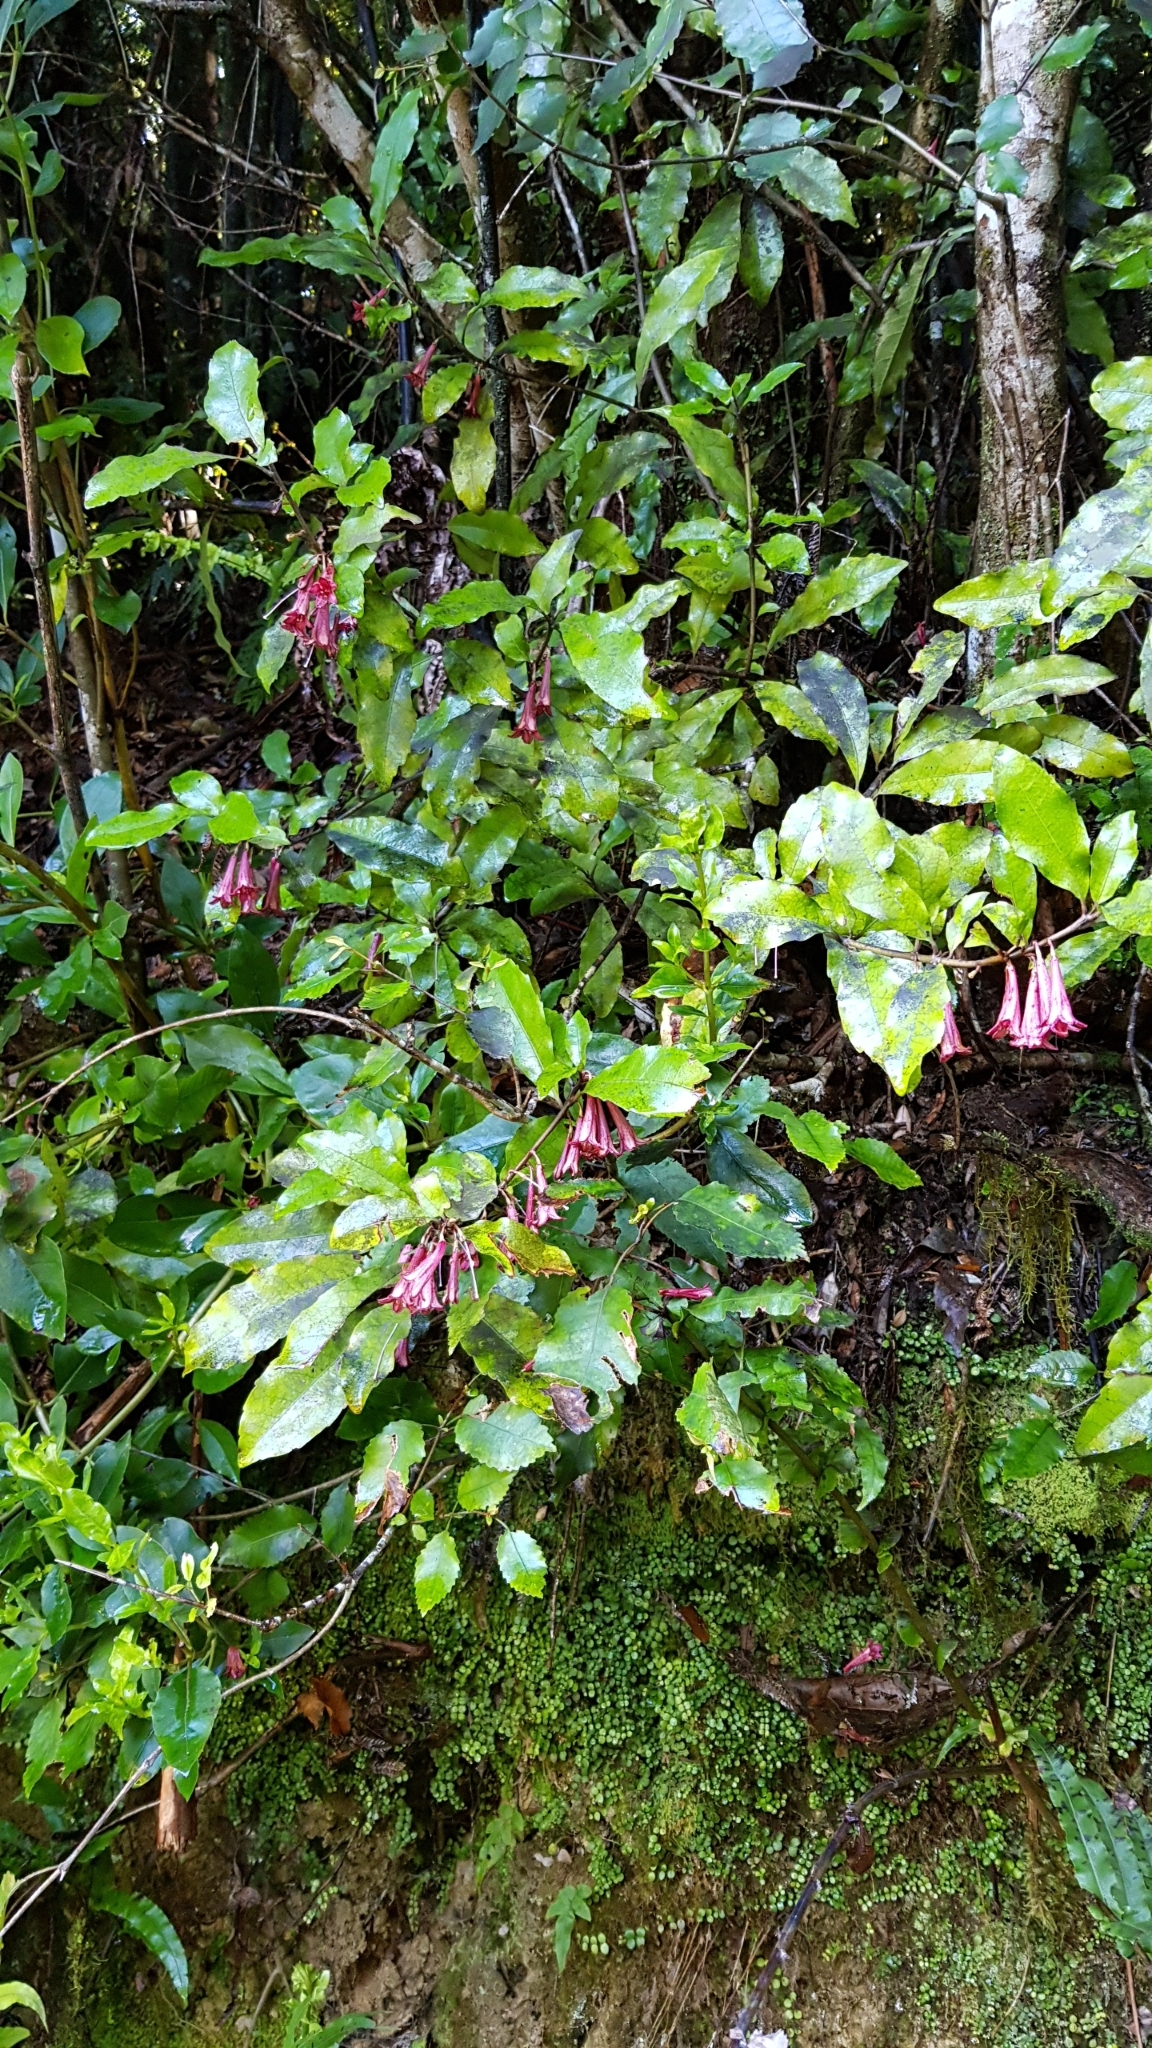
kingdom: Plantae
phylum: Tracheophyta
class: Magnoliopsida
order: Asterales
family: Alseuosmiaceae
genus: Alseuosmia
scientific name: Alseuosmia macrophylla
